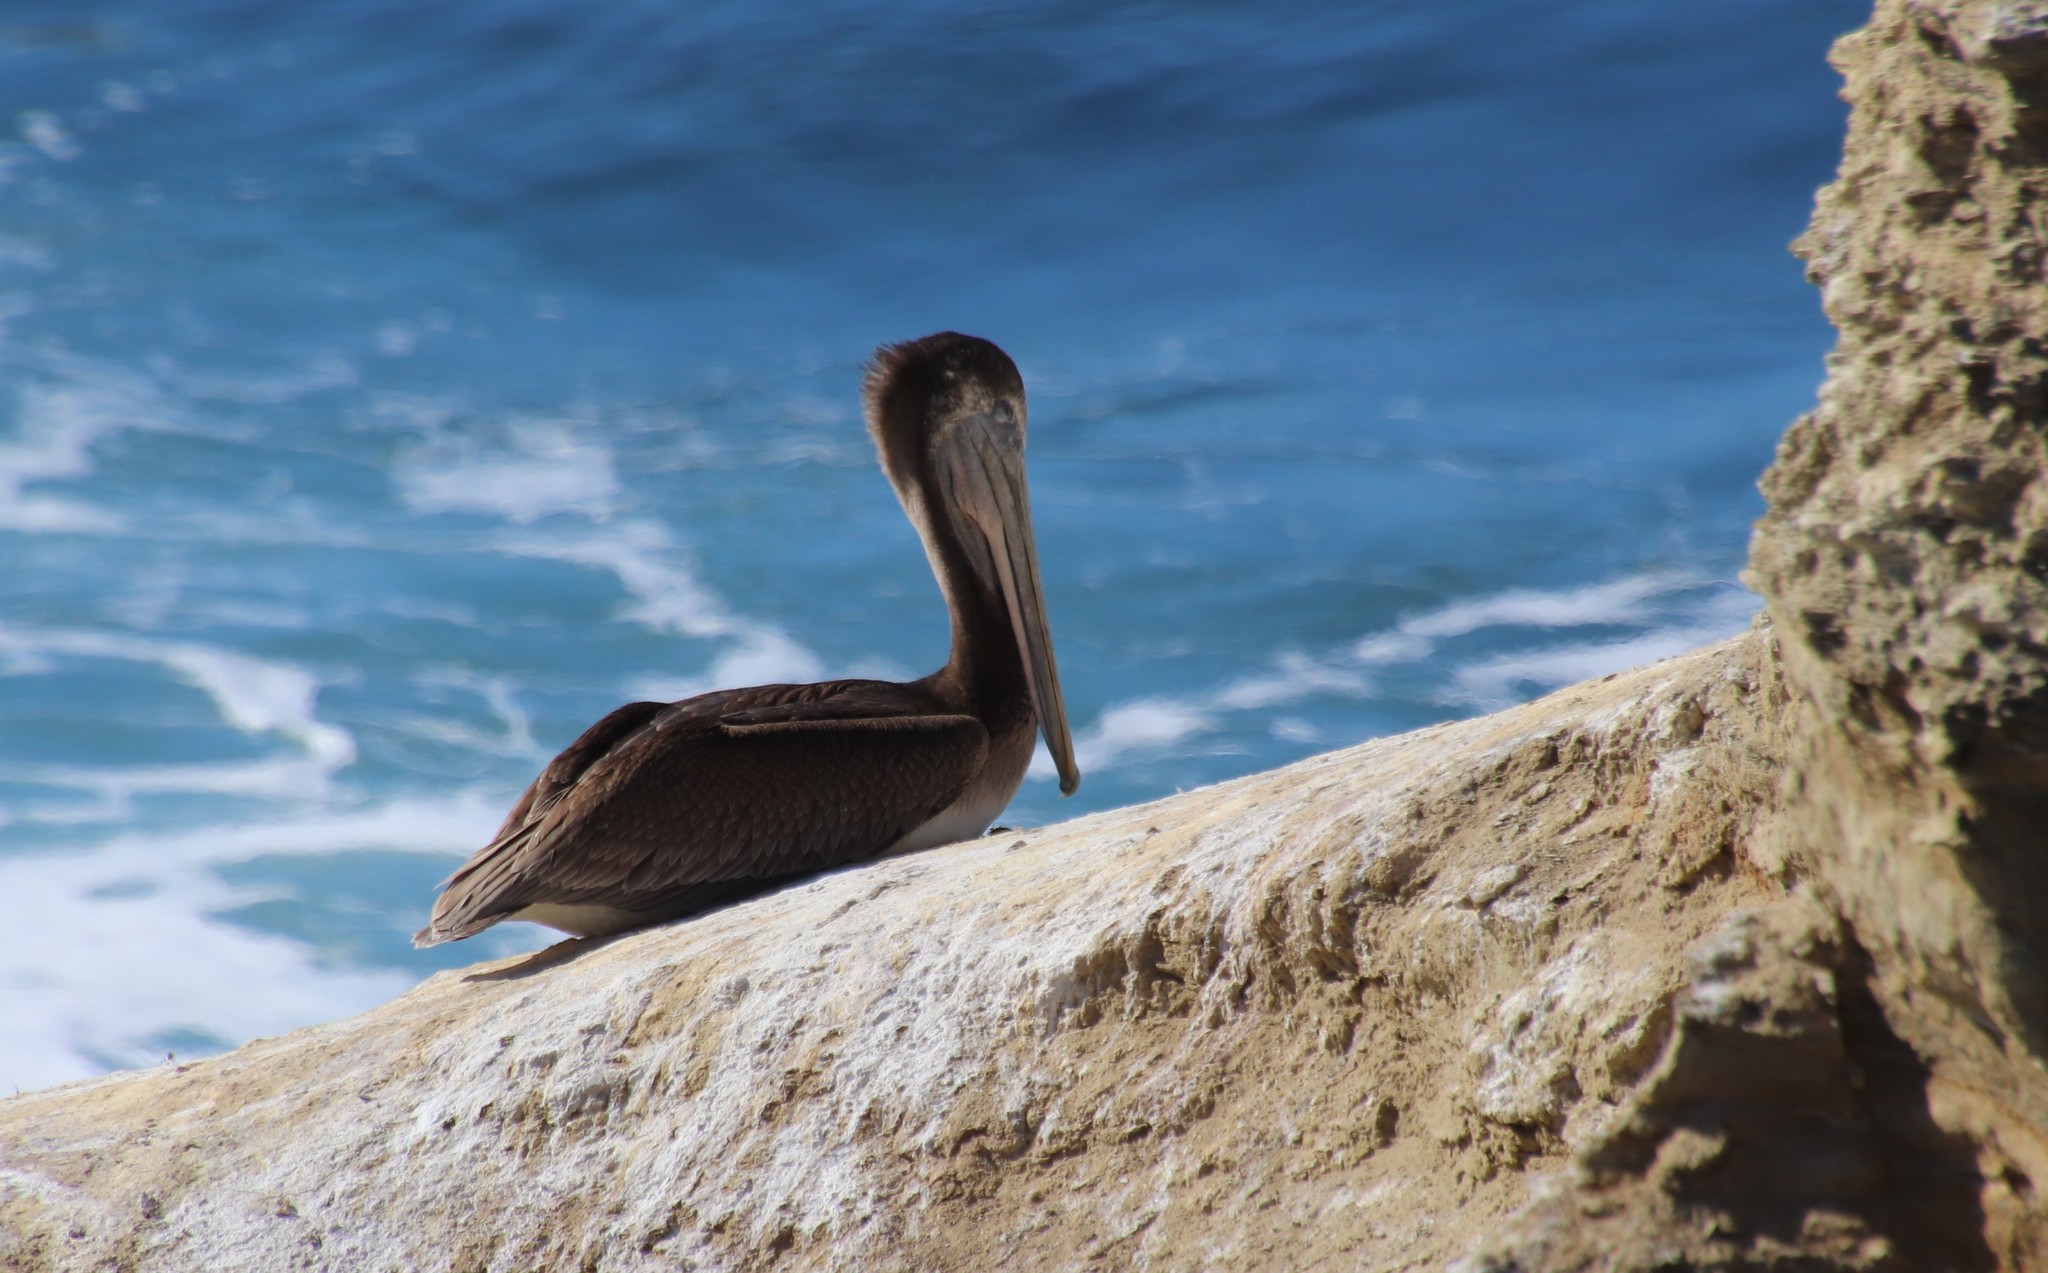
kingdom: Animalia
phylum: Chordata
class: Aves
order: Pelecaniformes
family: Pelecanidae
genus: Pelecanus
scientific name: Pelecanus occidentalis
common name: Brown pelican
